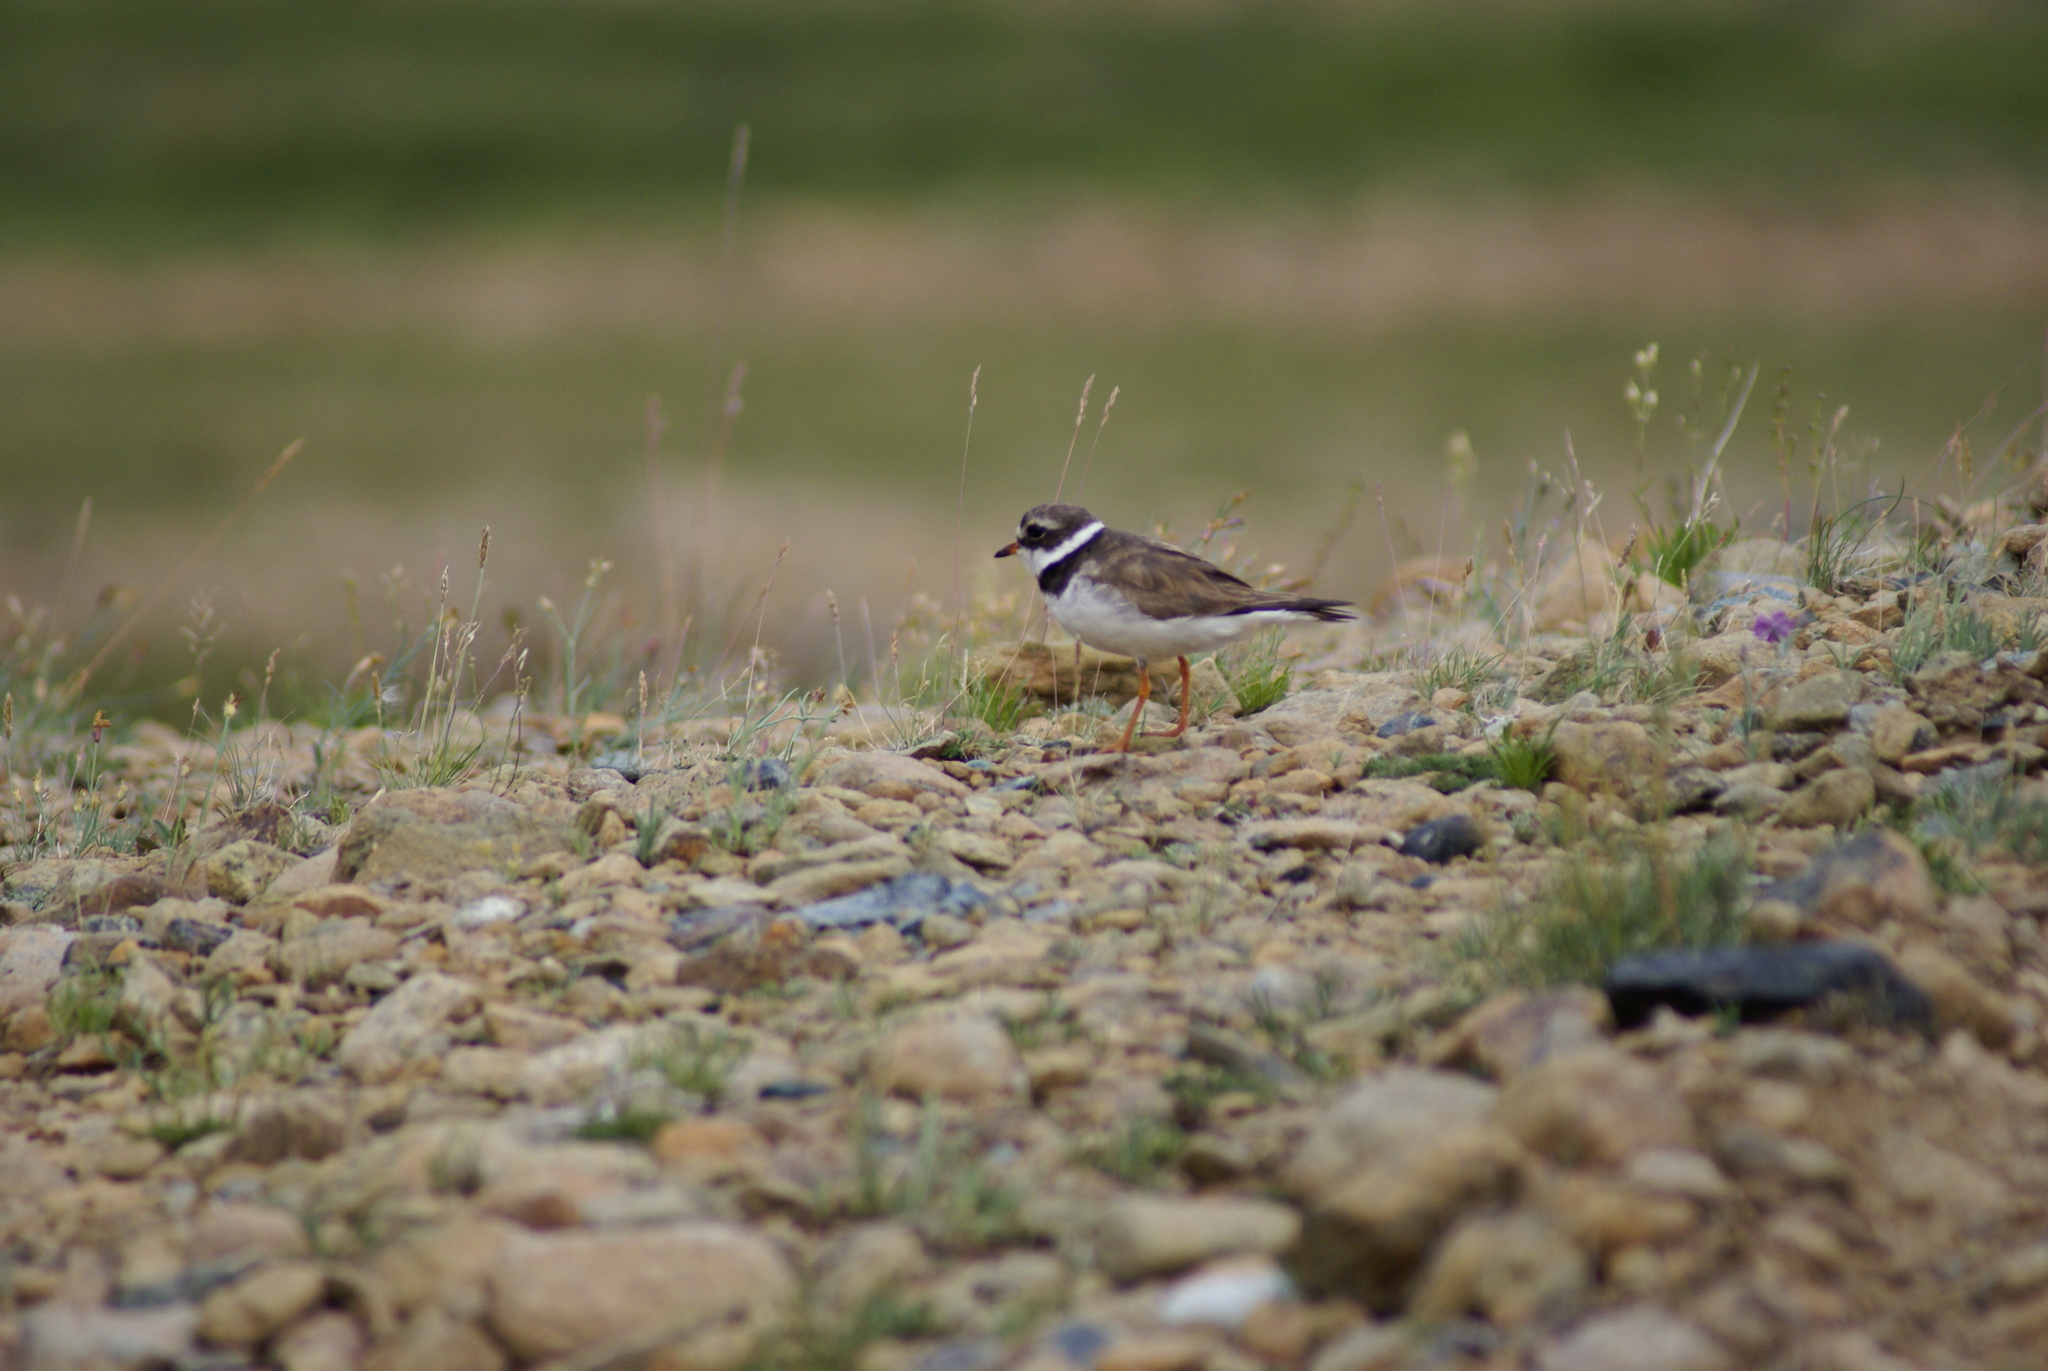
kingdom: Animalia
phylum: Chordata
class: Aves
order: Charadriiformes
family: Charadriidae
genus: Charadrius
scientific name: Charadrius hiaticula
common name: Common ringed plover
